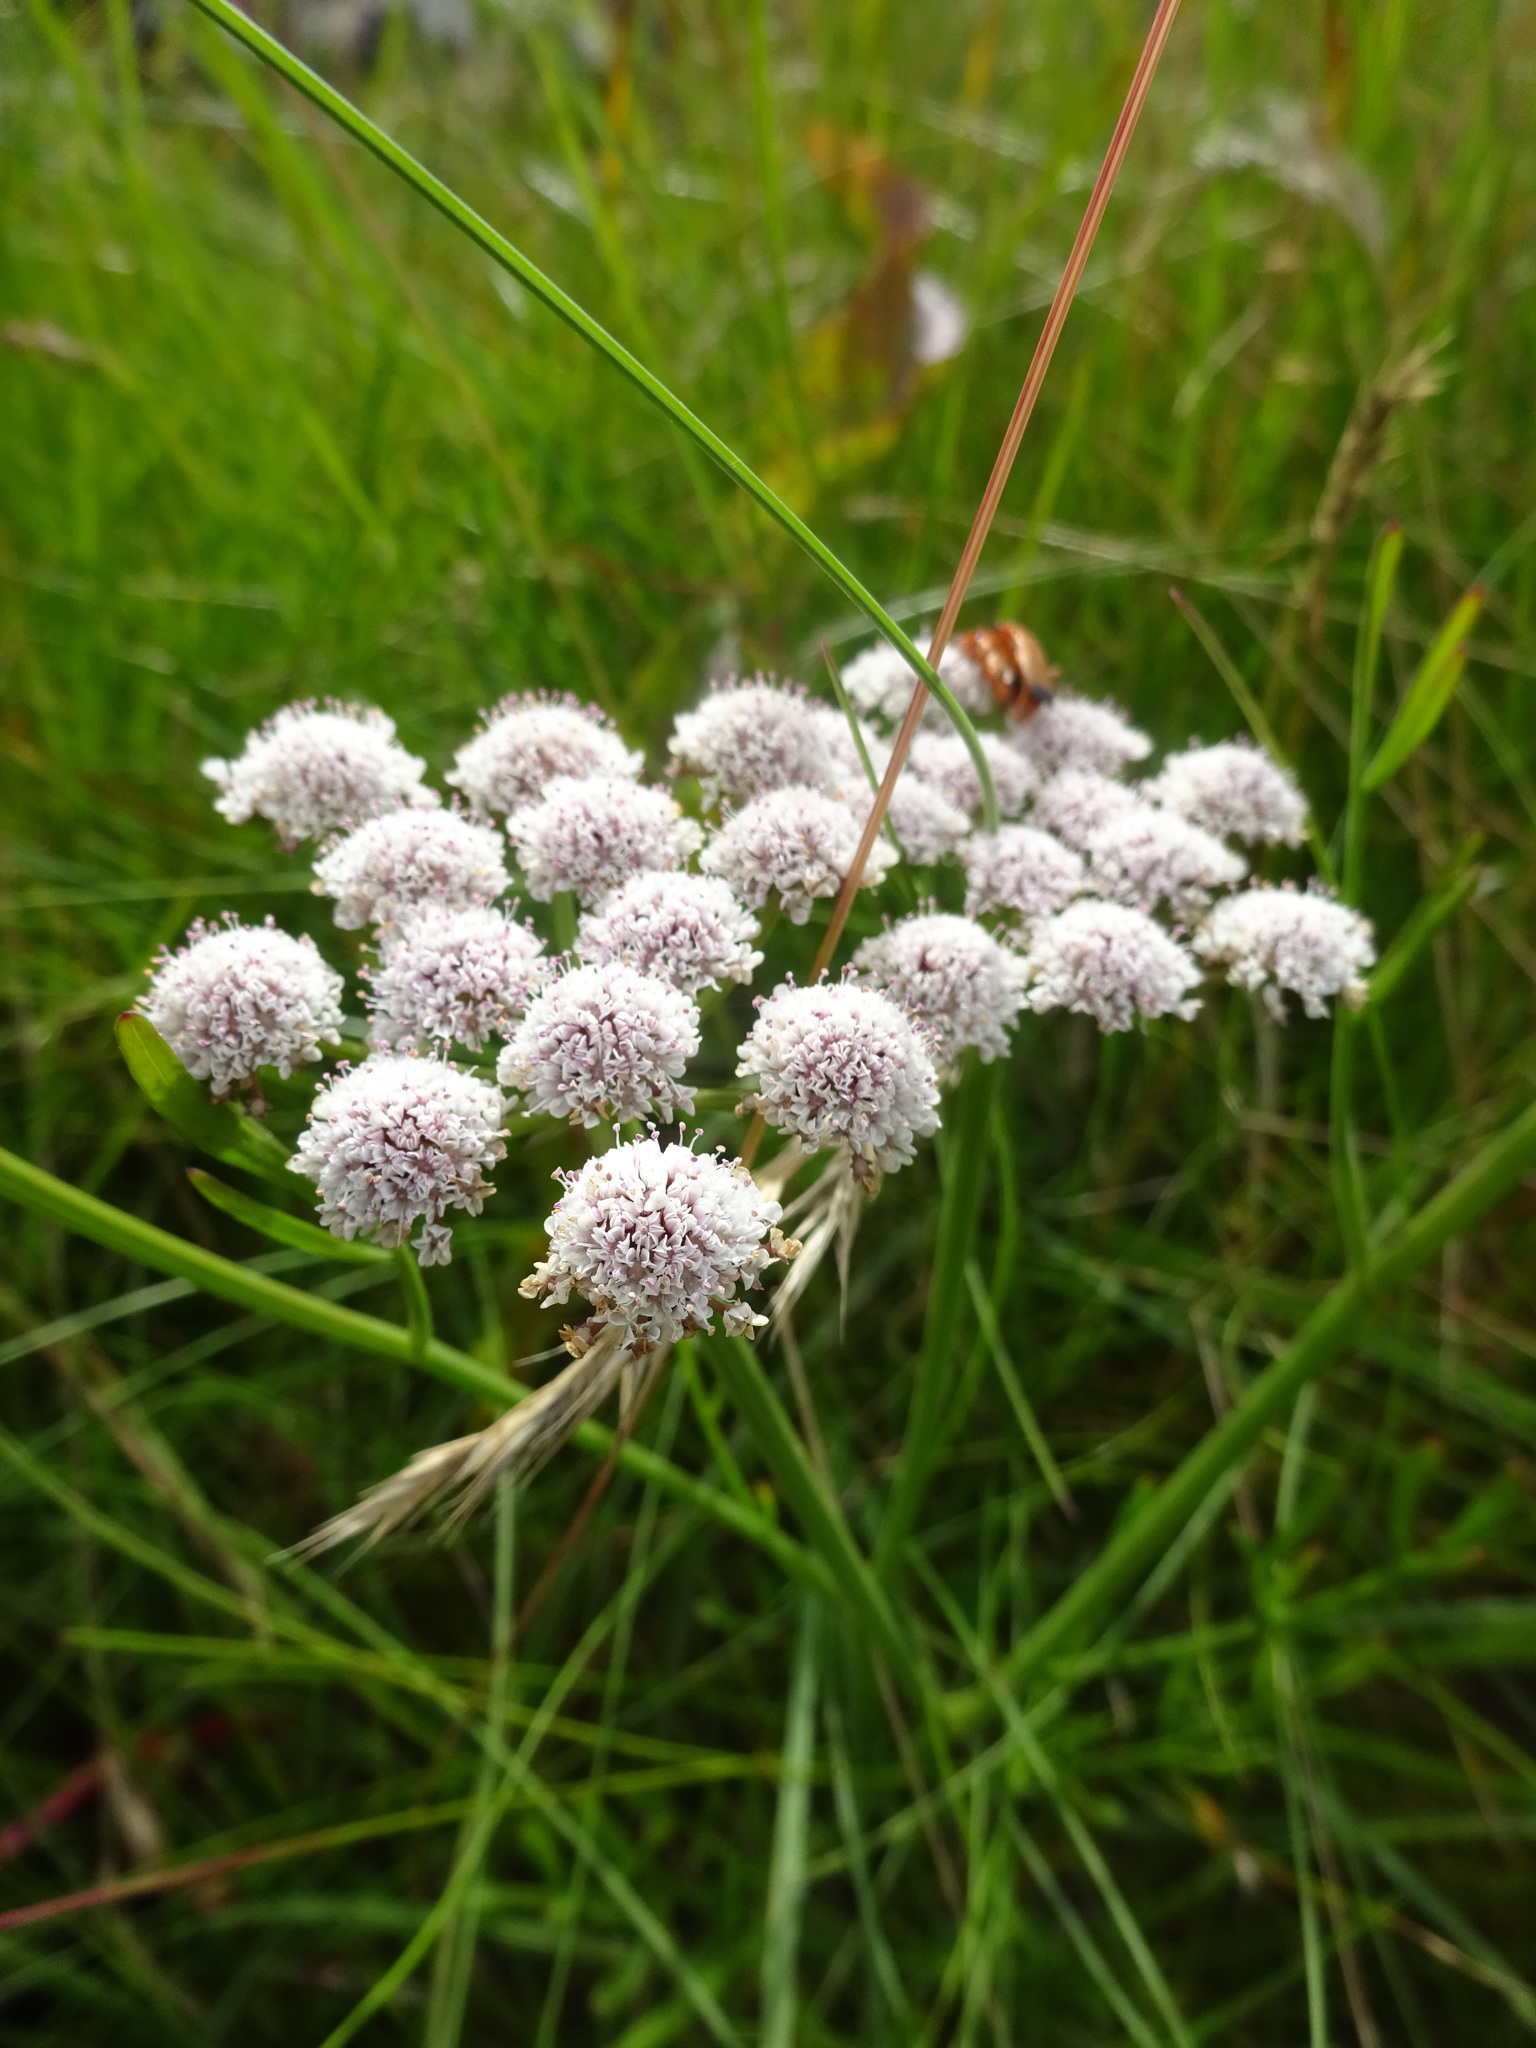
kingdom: Plantae
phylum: Tracheophyta
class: Magnoliopsida
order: Apiales
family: Apiaceae
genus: Oenanthe
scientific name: Oenanthe lachenalii
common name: Parsley water-dropwort
